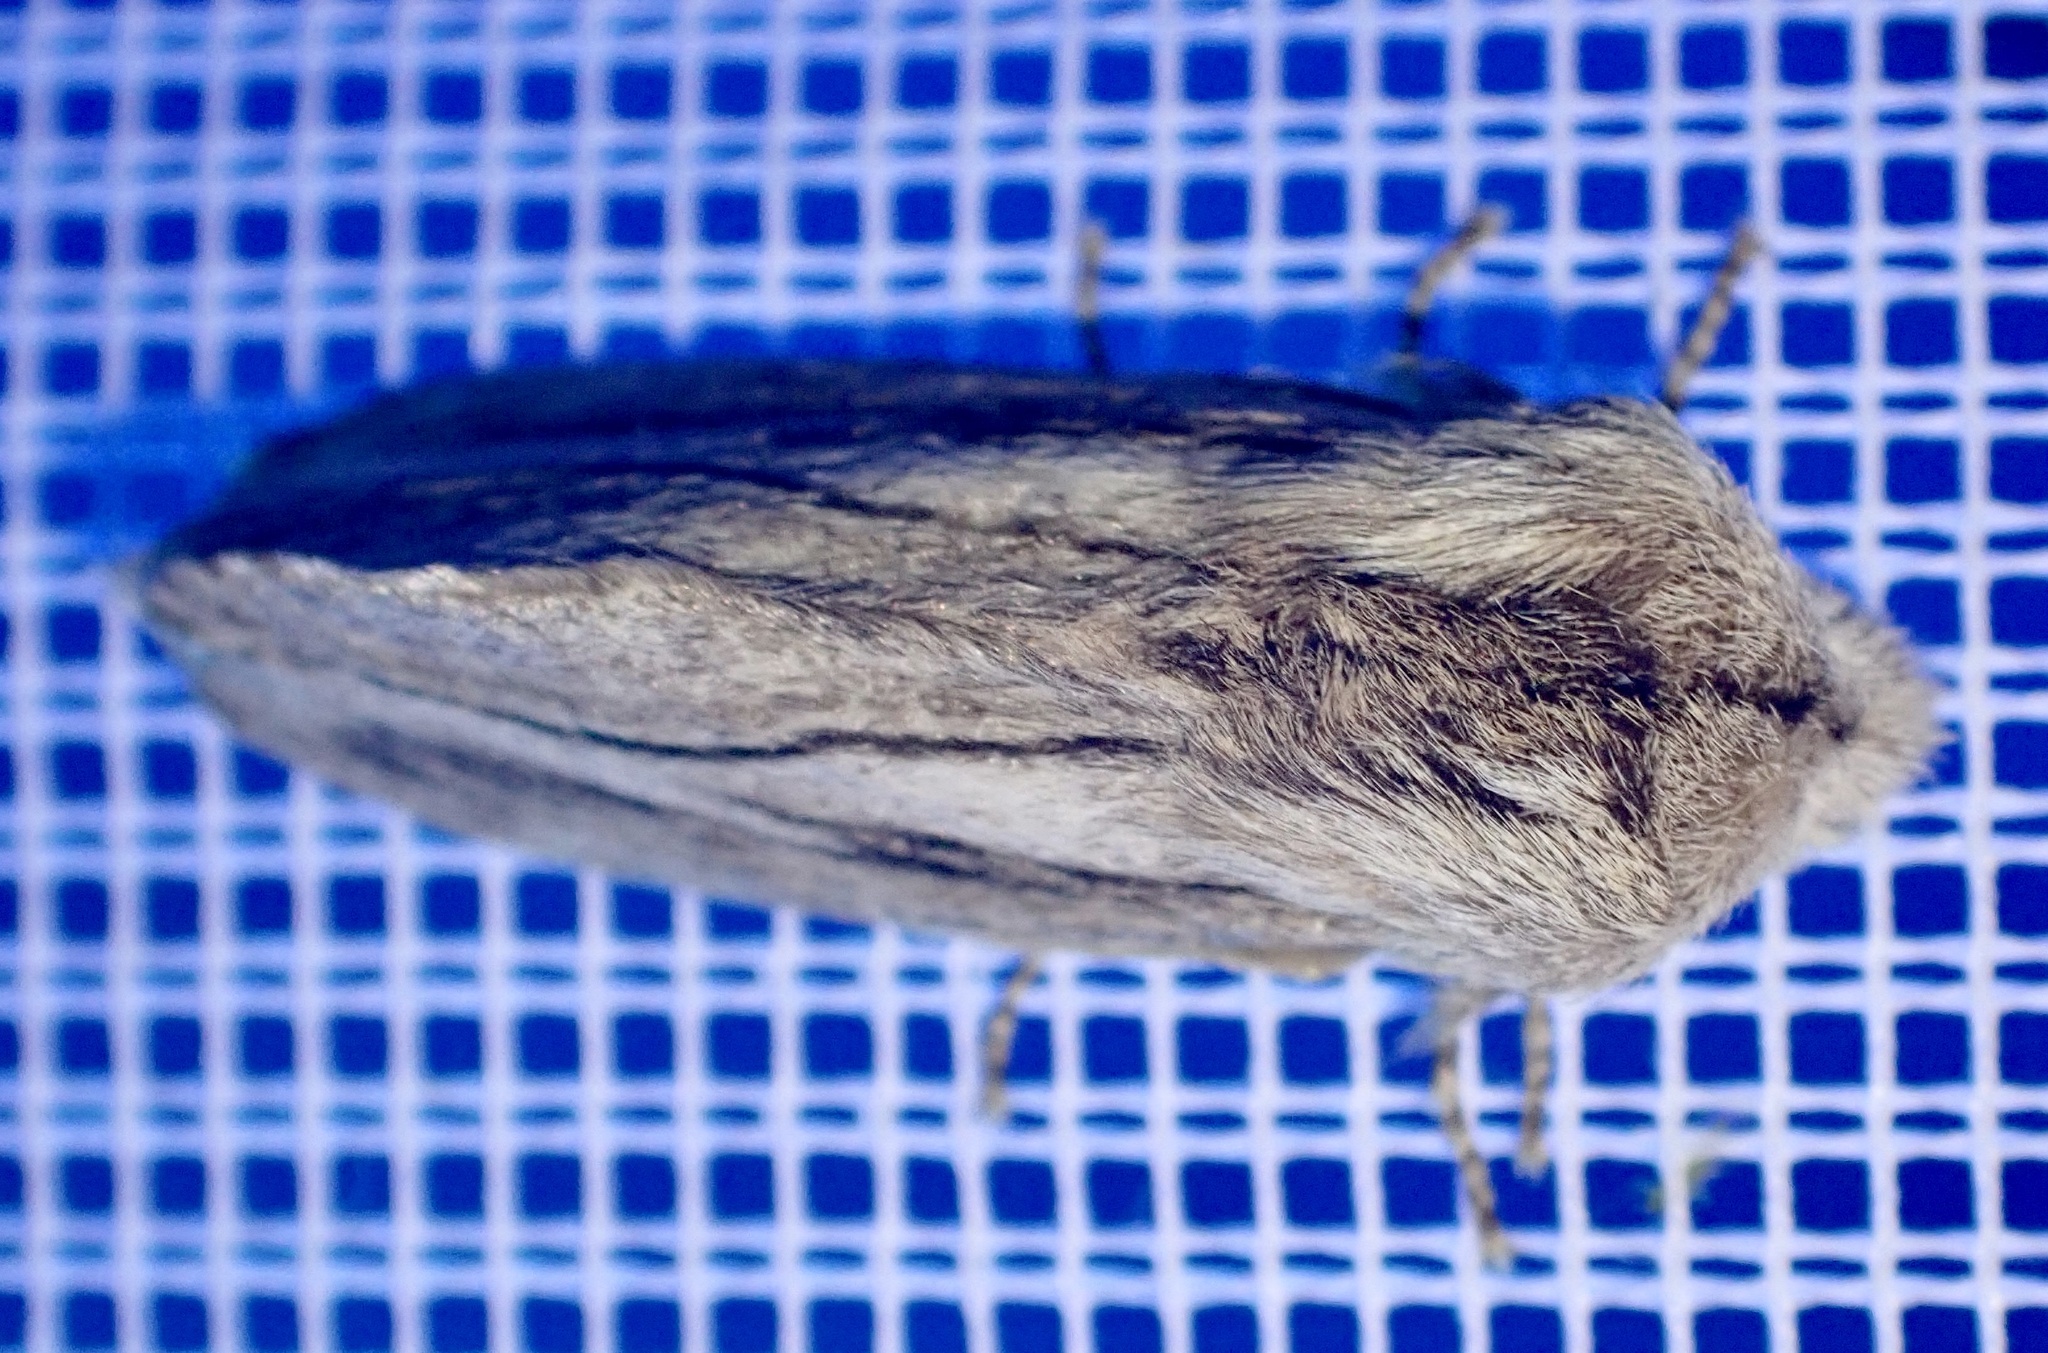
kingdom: Animalia
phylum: Arthropoda
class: Insecta
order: Lepidoptera
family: Lasiocampidae
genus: Gufria
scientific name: Gufria limosa
